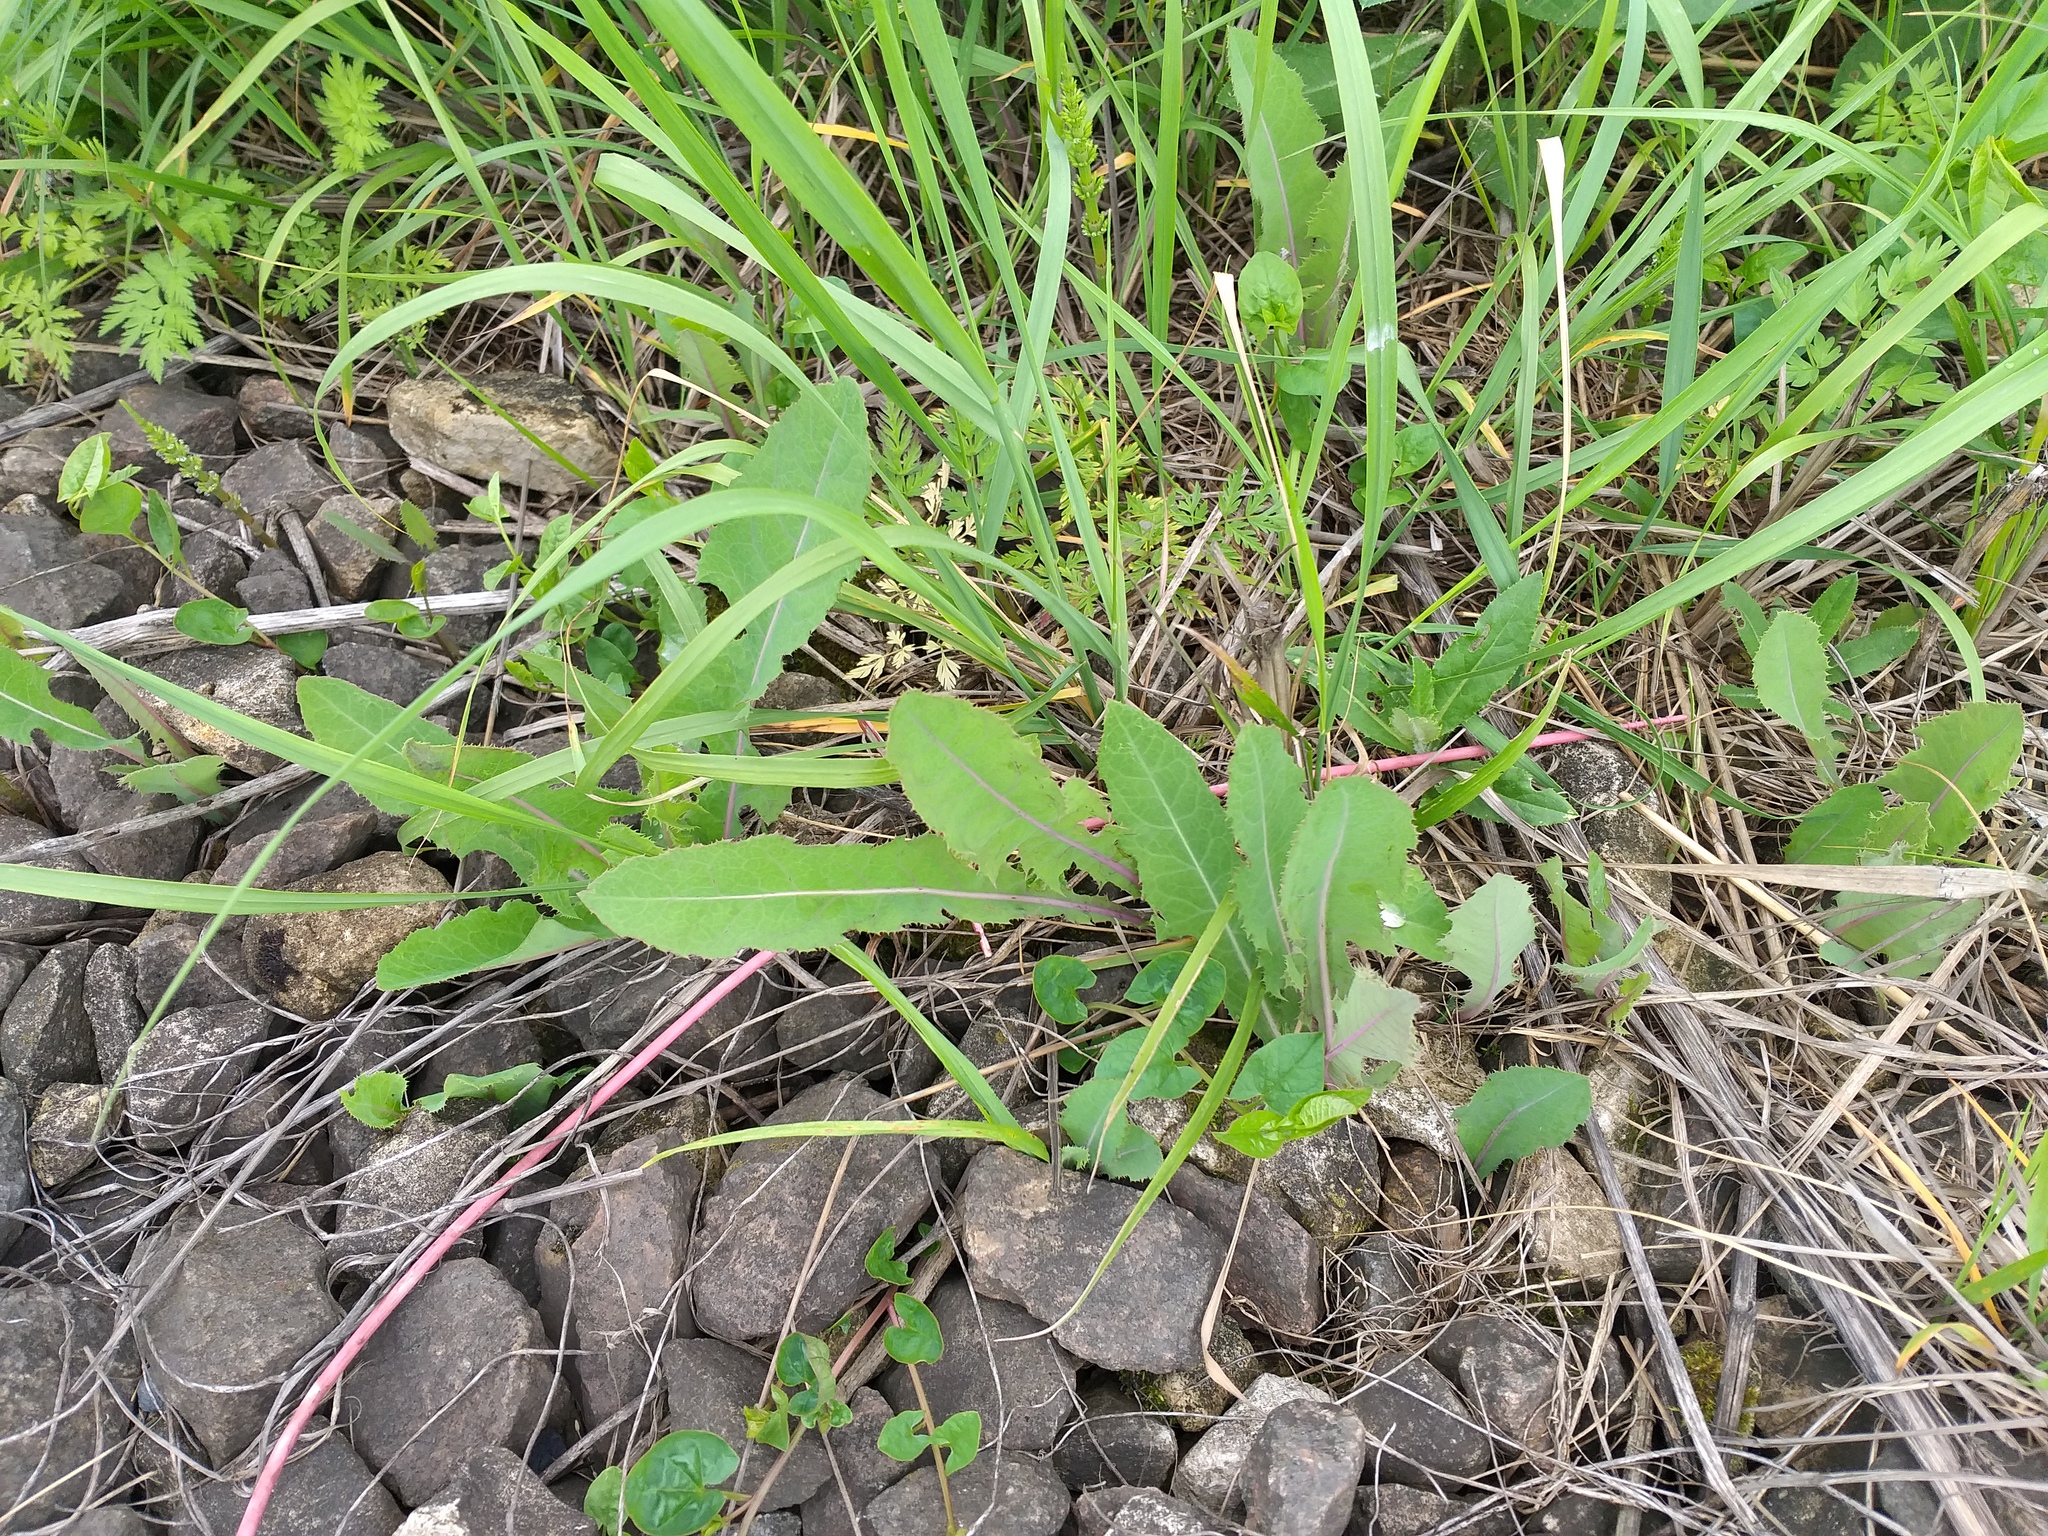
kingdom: Plantae
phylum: Tracheophyta
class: Magnoliopsida
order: Asterales
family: Asteraceae
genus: Sonchus
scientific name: Sonchus arvensis
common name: Perennial sow-thistle
